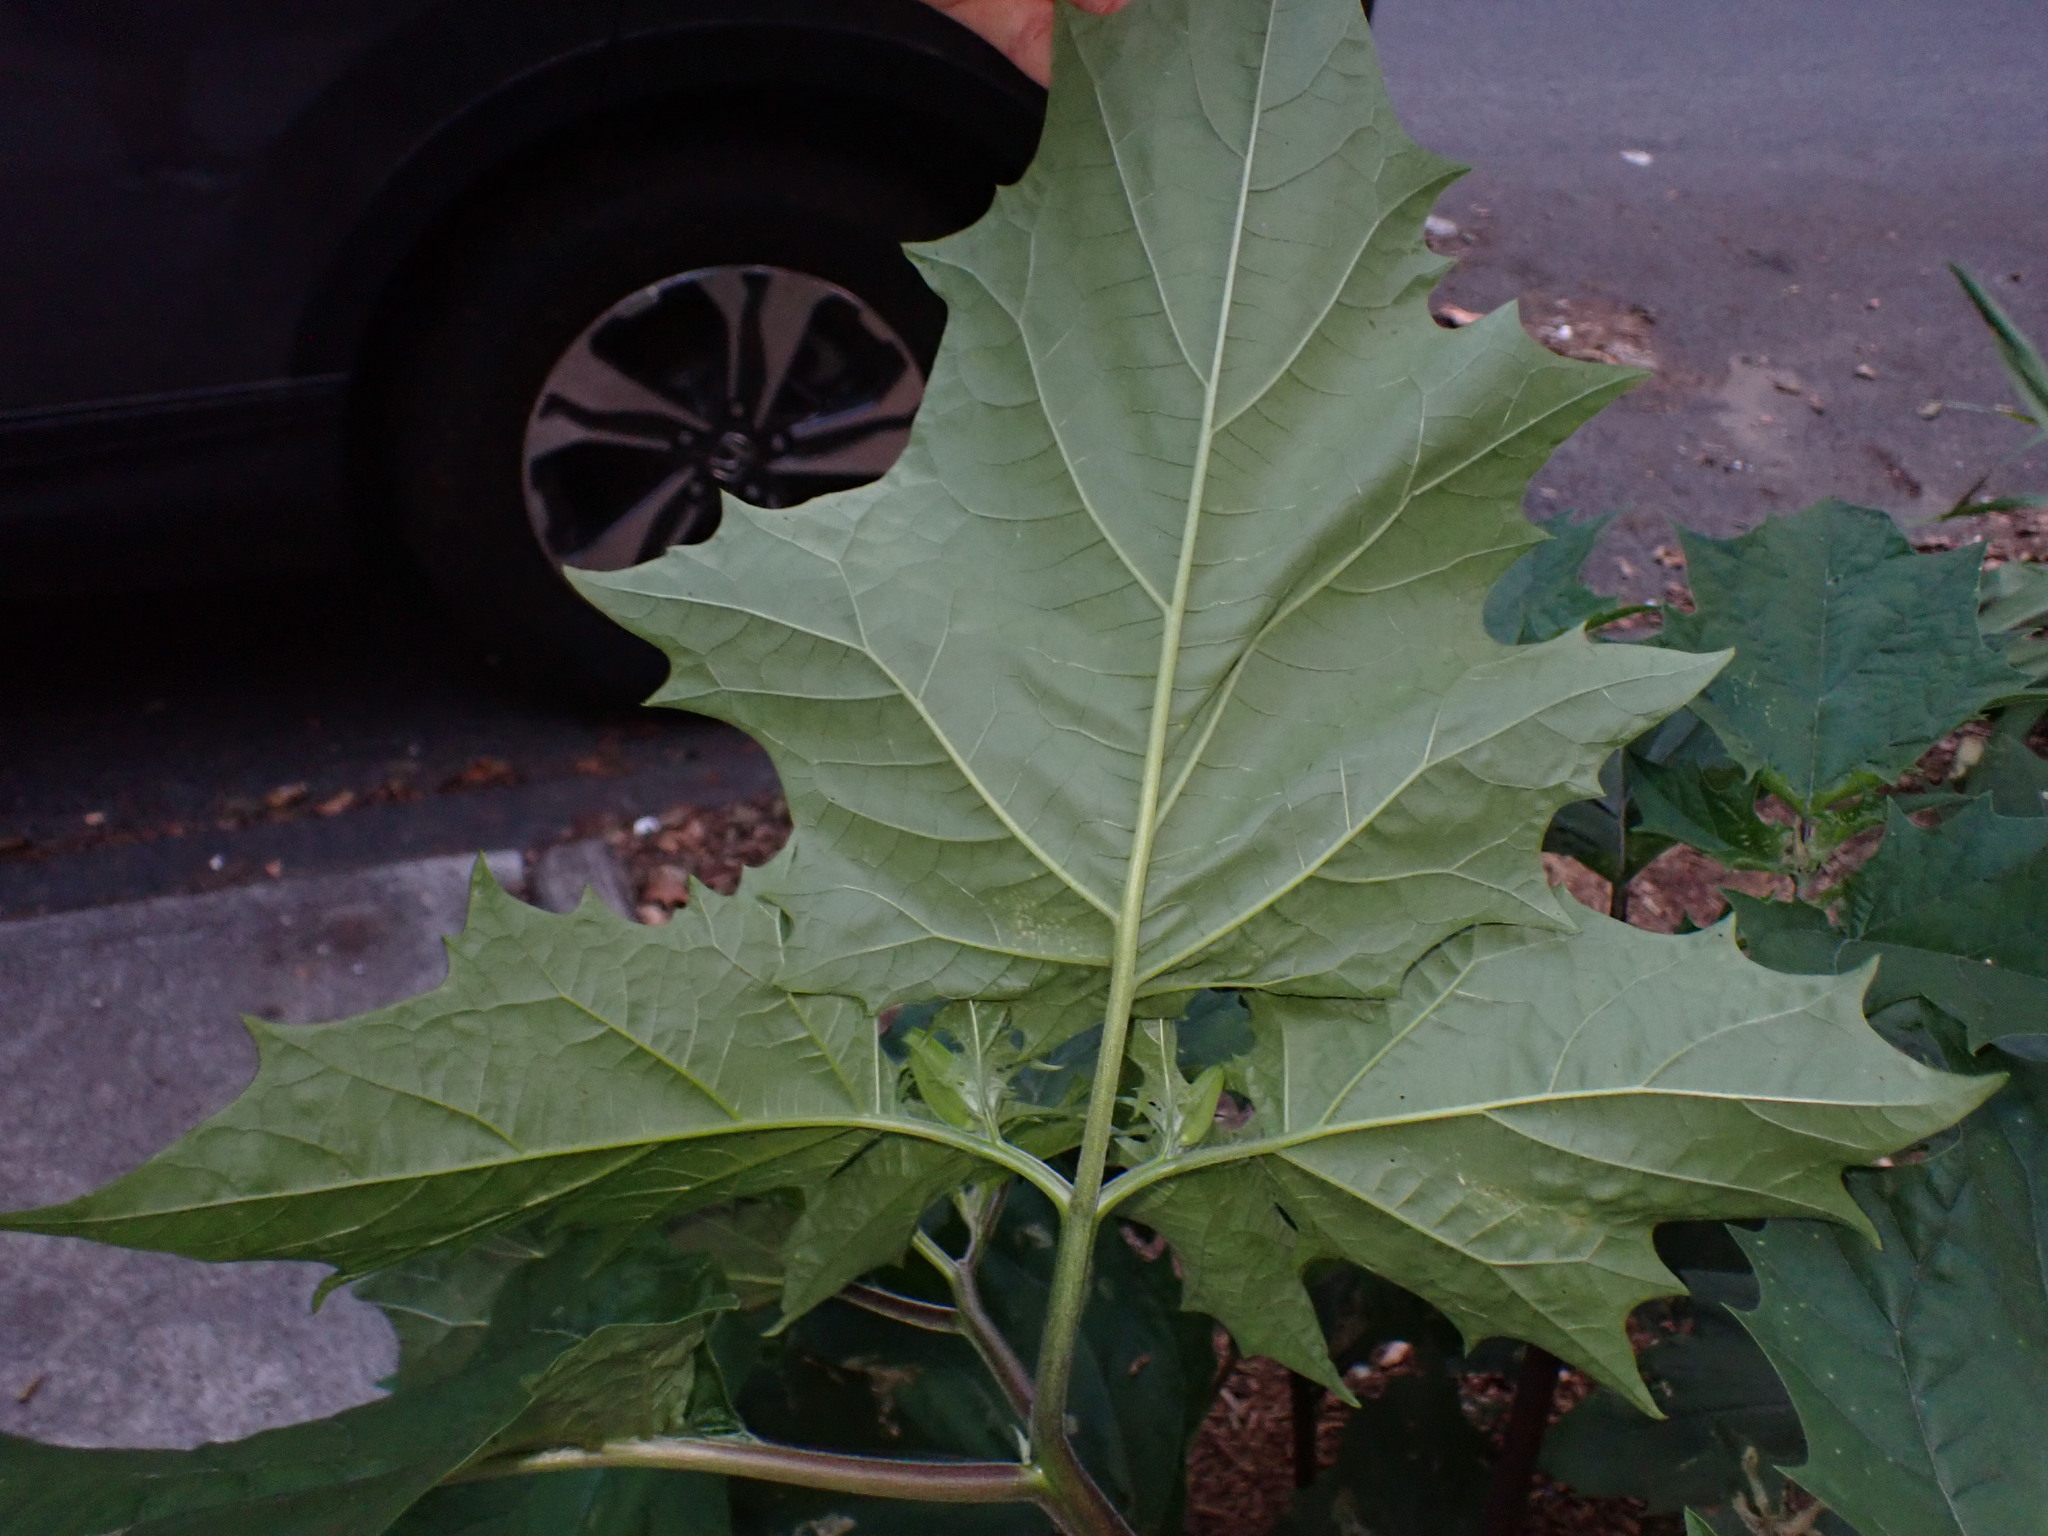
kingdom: Plantae
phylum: Tracheophyta
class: Magnoliopsida
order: Solanales
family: Solanaceae
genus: Datura
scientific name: Datura stramonium
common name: Thorn-apple
